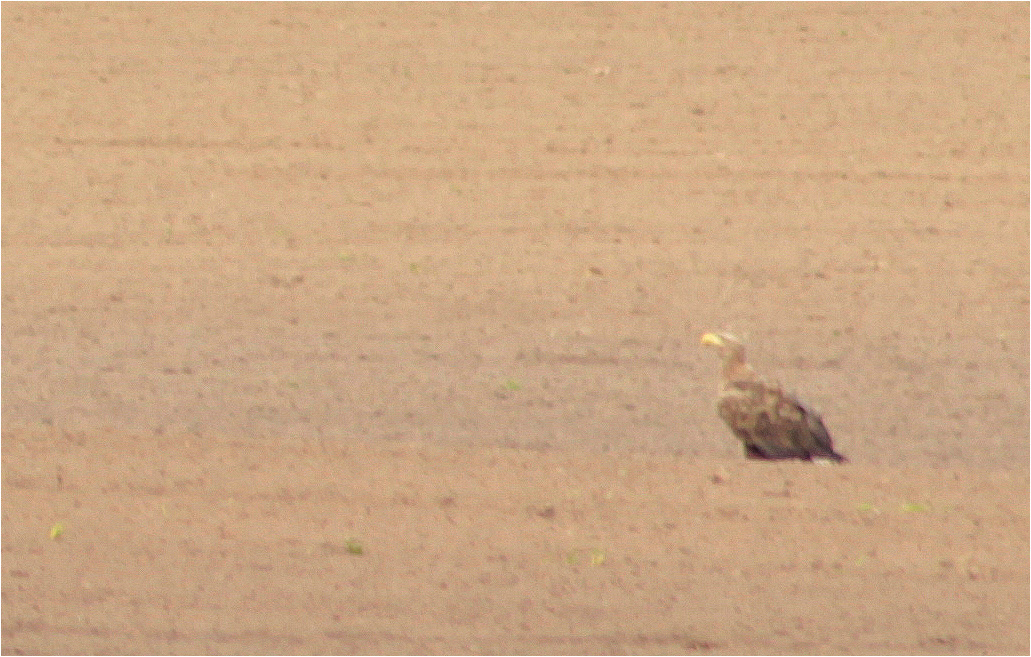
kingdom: Animalia
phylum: Chordata
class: Aves
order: Accipitriformes
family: Accipitridae
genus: Haliaeetus
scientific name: Haliaeetus albicilla
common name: White-tailed eagle
